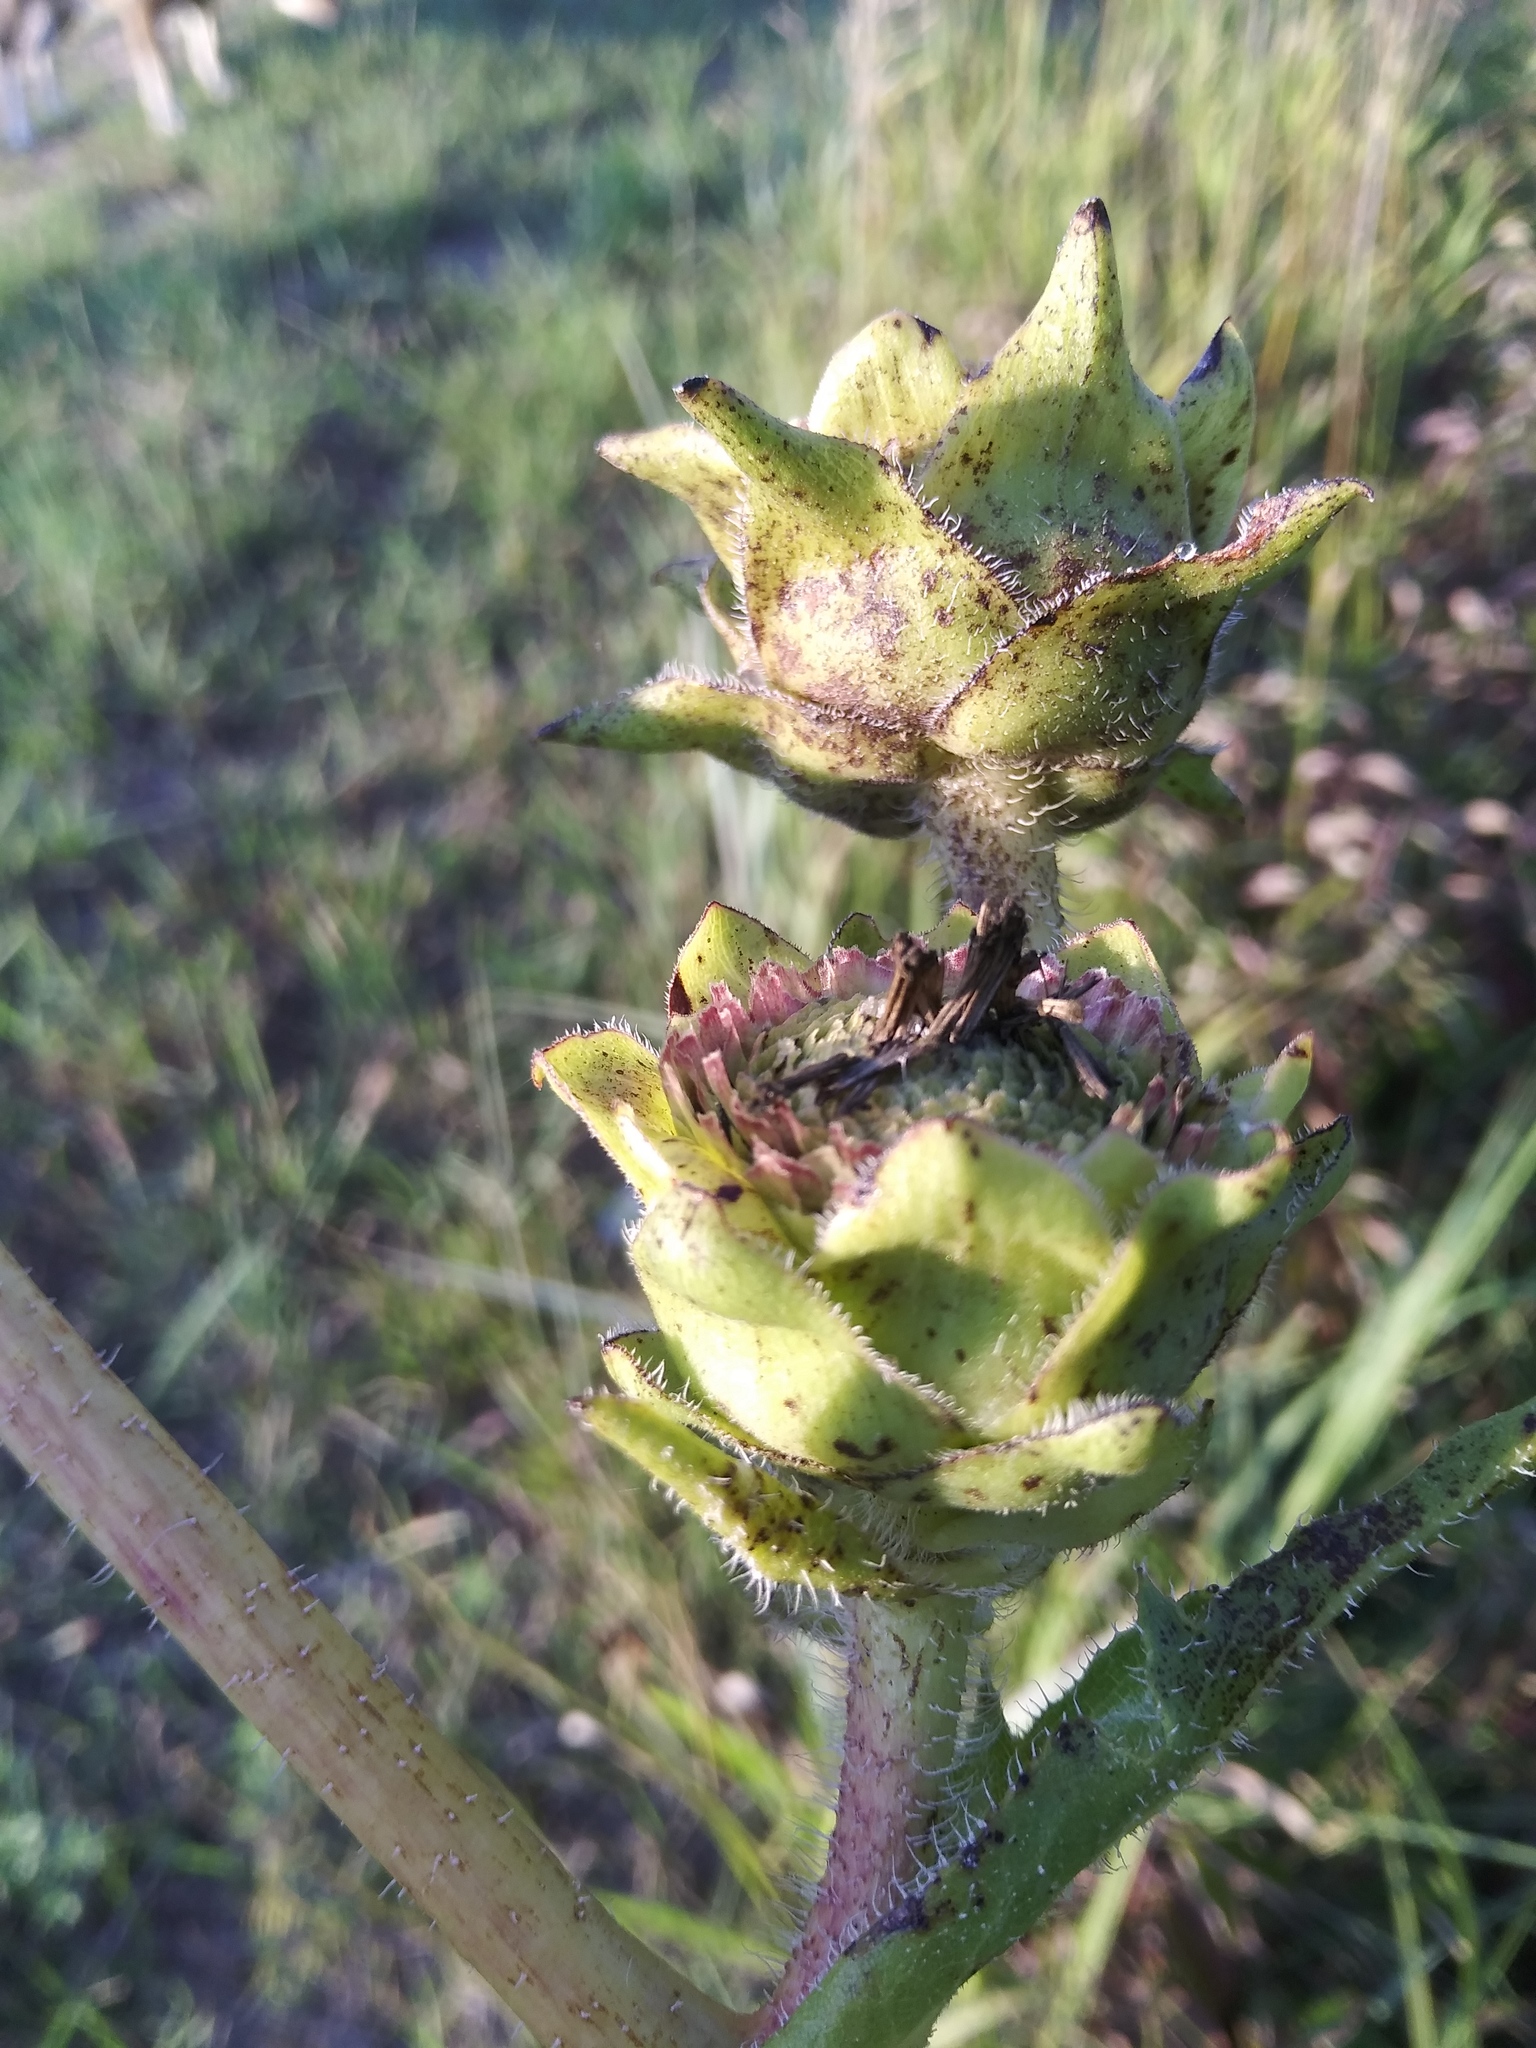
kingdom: Plantae
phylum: Tracheophyta
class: Magnoliopsida
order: Asterales
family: Asteraceae
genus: Silphium
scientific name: Silphium laciniatum
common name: Polarplant
